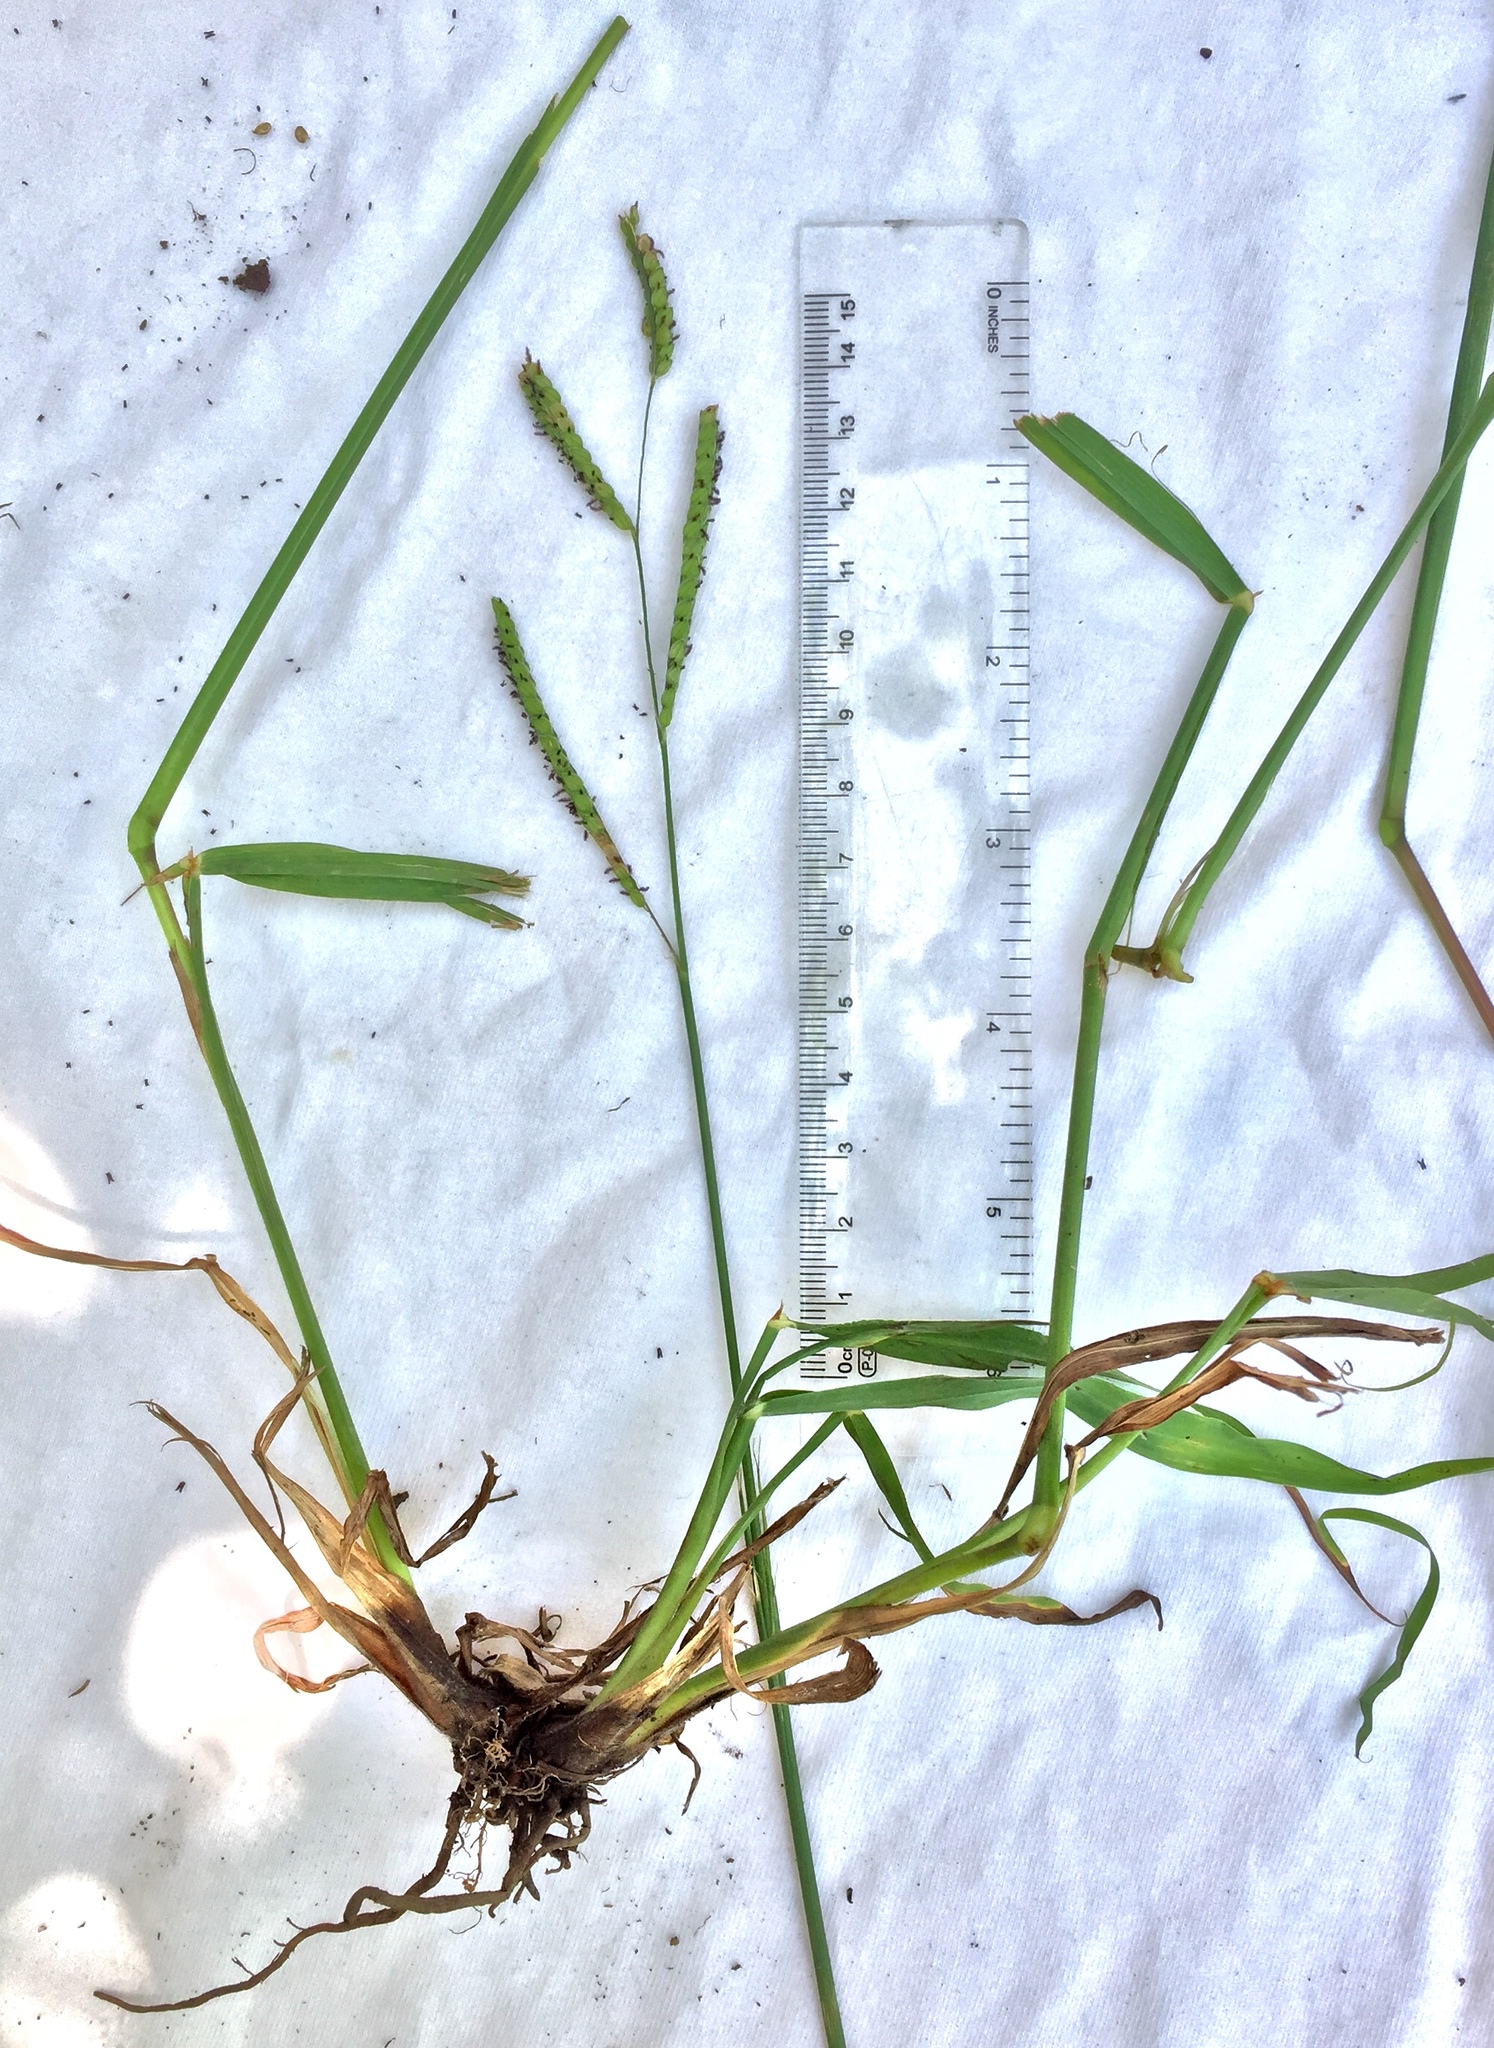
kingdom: Plantae
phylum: Tracheophyta
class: Liliopsida
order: Poales
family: Poaceae
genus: Paspalum
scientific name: Paspalum dilatatum
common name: Dallisgrass
